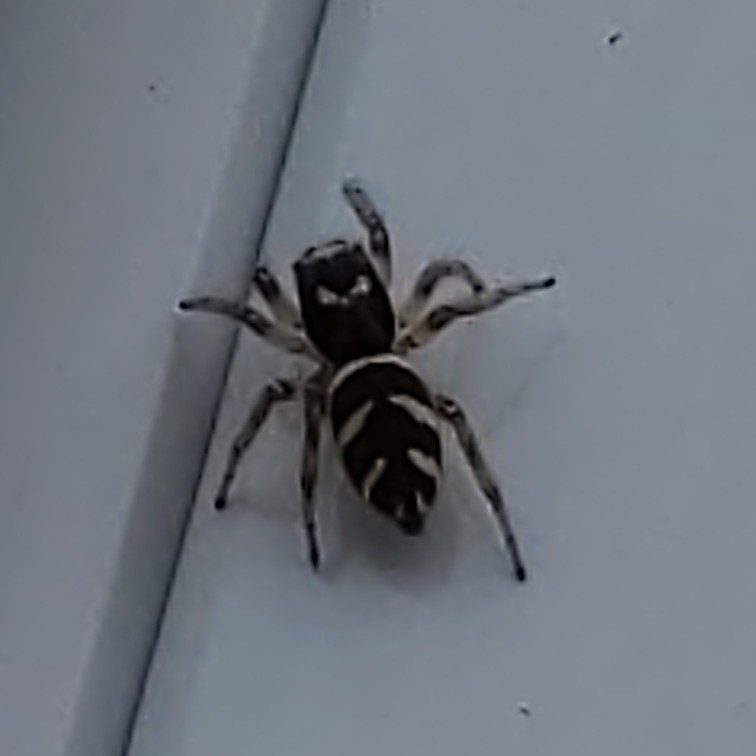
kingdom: Animalia
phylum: Arthropoda
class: Arachnida
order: Araneae
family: Salticidae
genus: Salticus
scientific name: Salticus scenicus
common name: Zebra jumper
